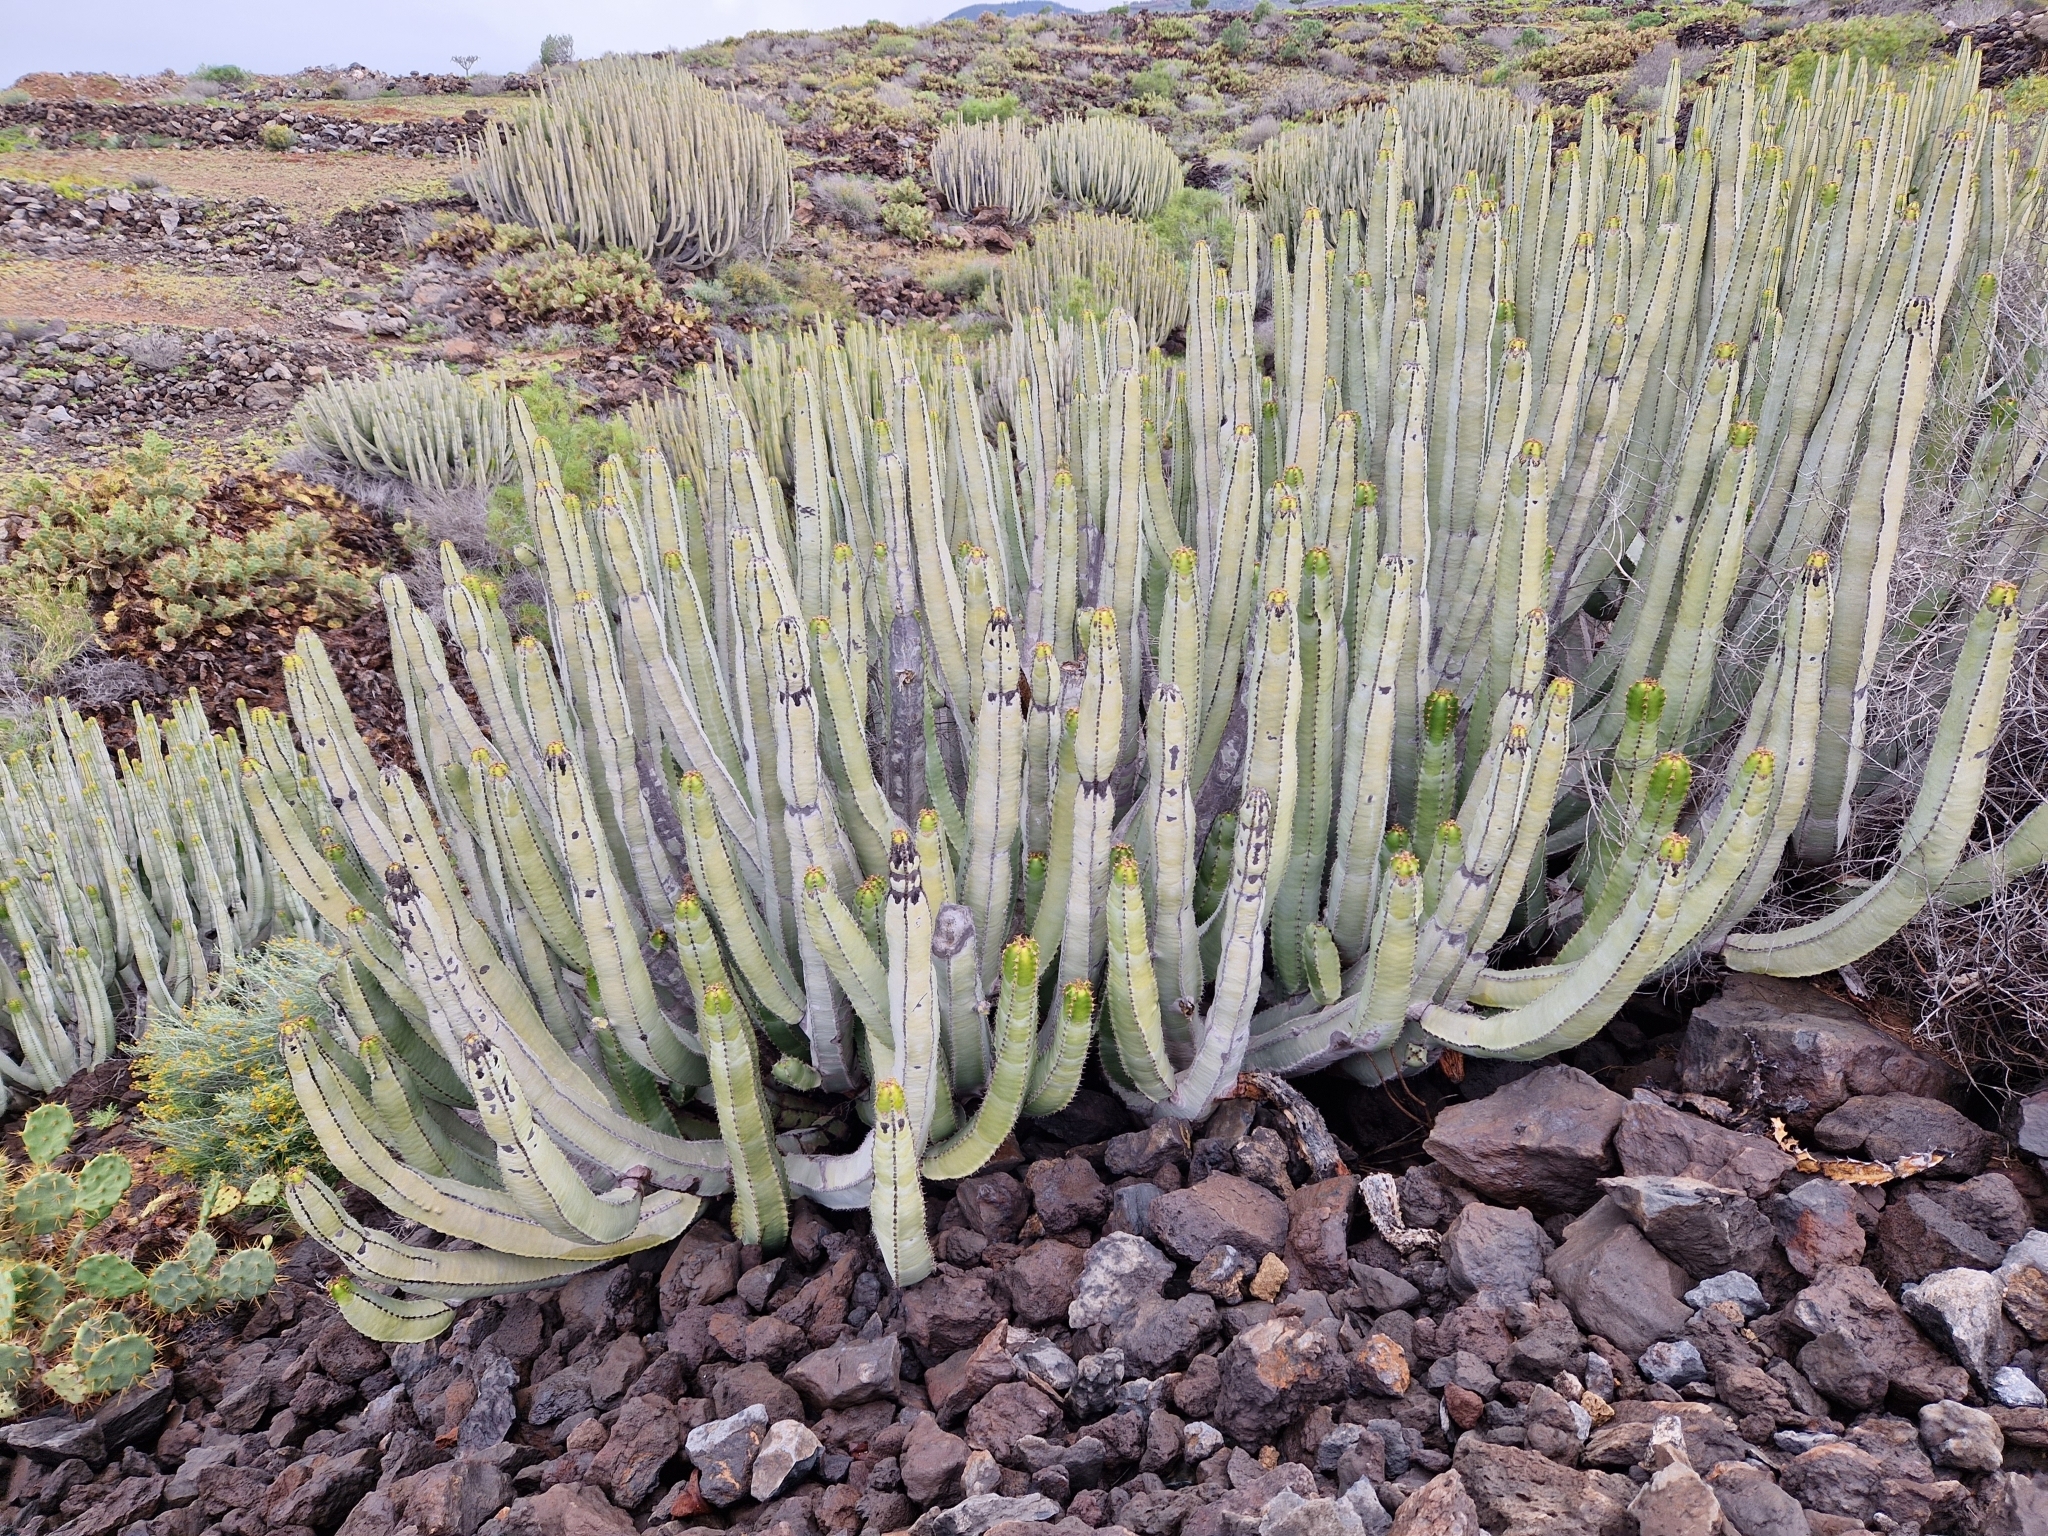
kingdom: Plantae
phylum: Tracheophyta
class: Magnoliopsida
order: Malpighiales
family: Euphorbiaceae
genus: Euphorbia
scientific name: Euphorbia canariensis
